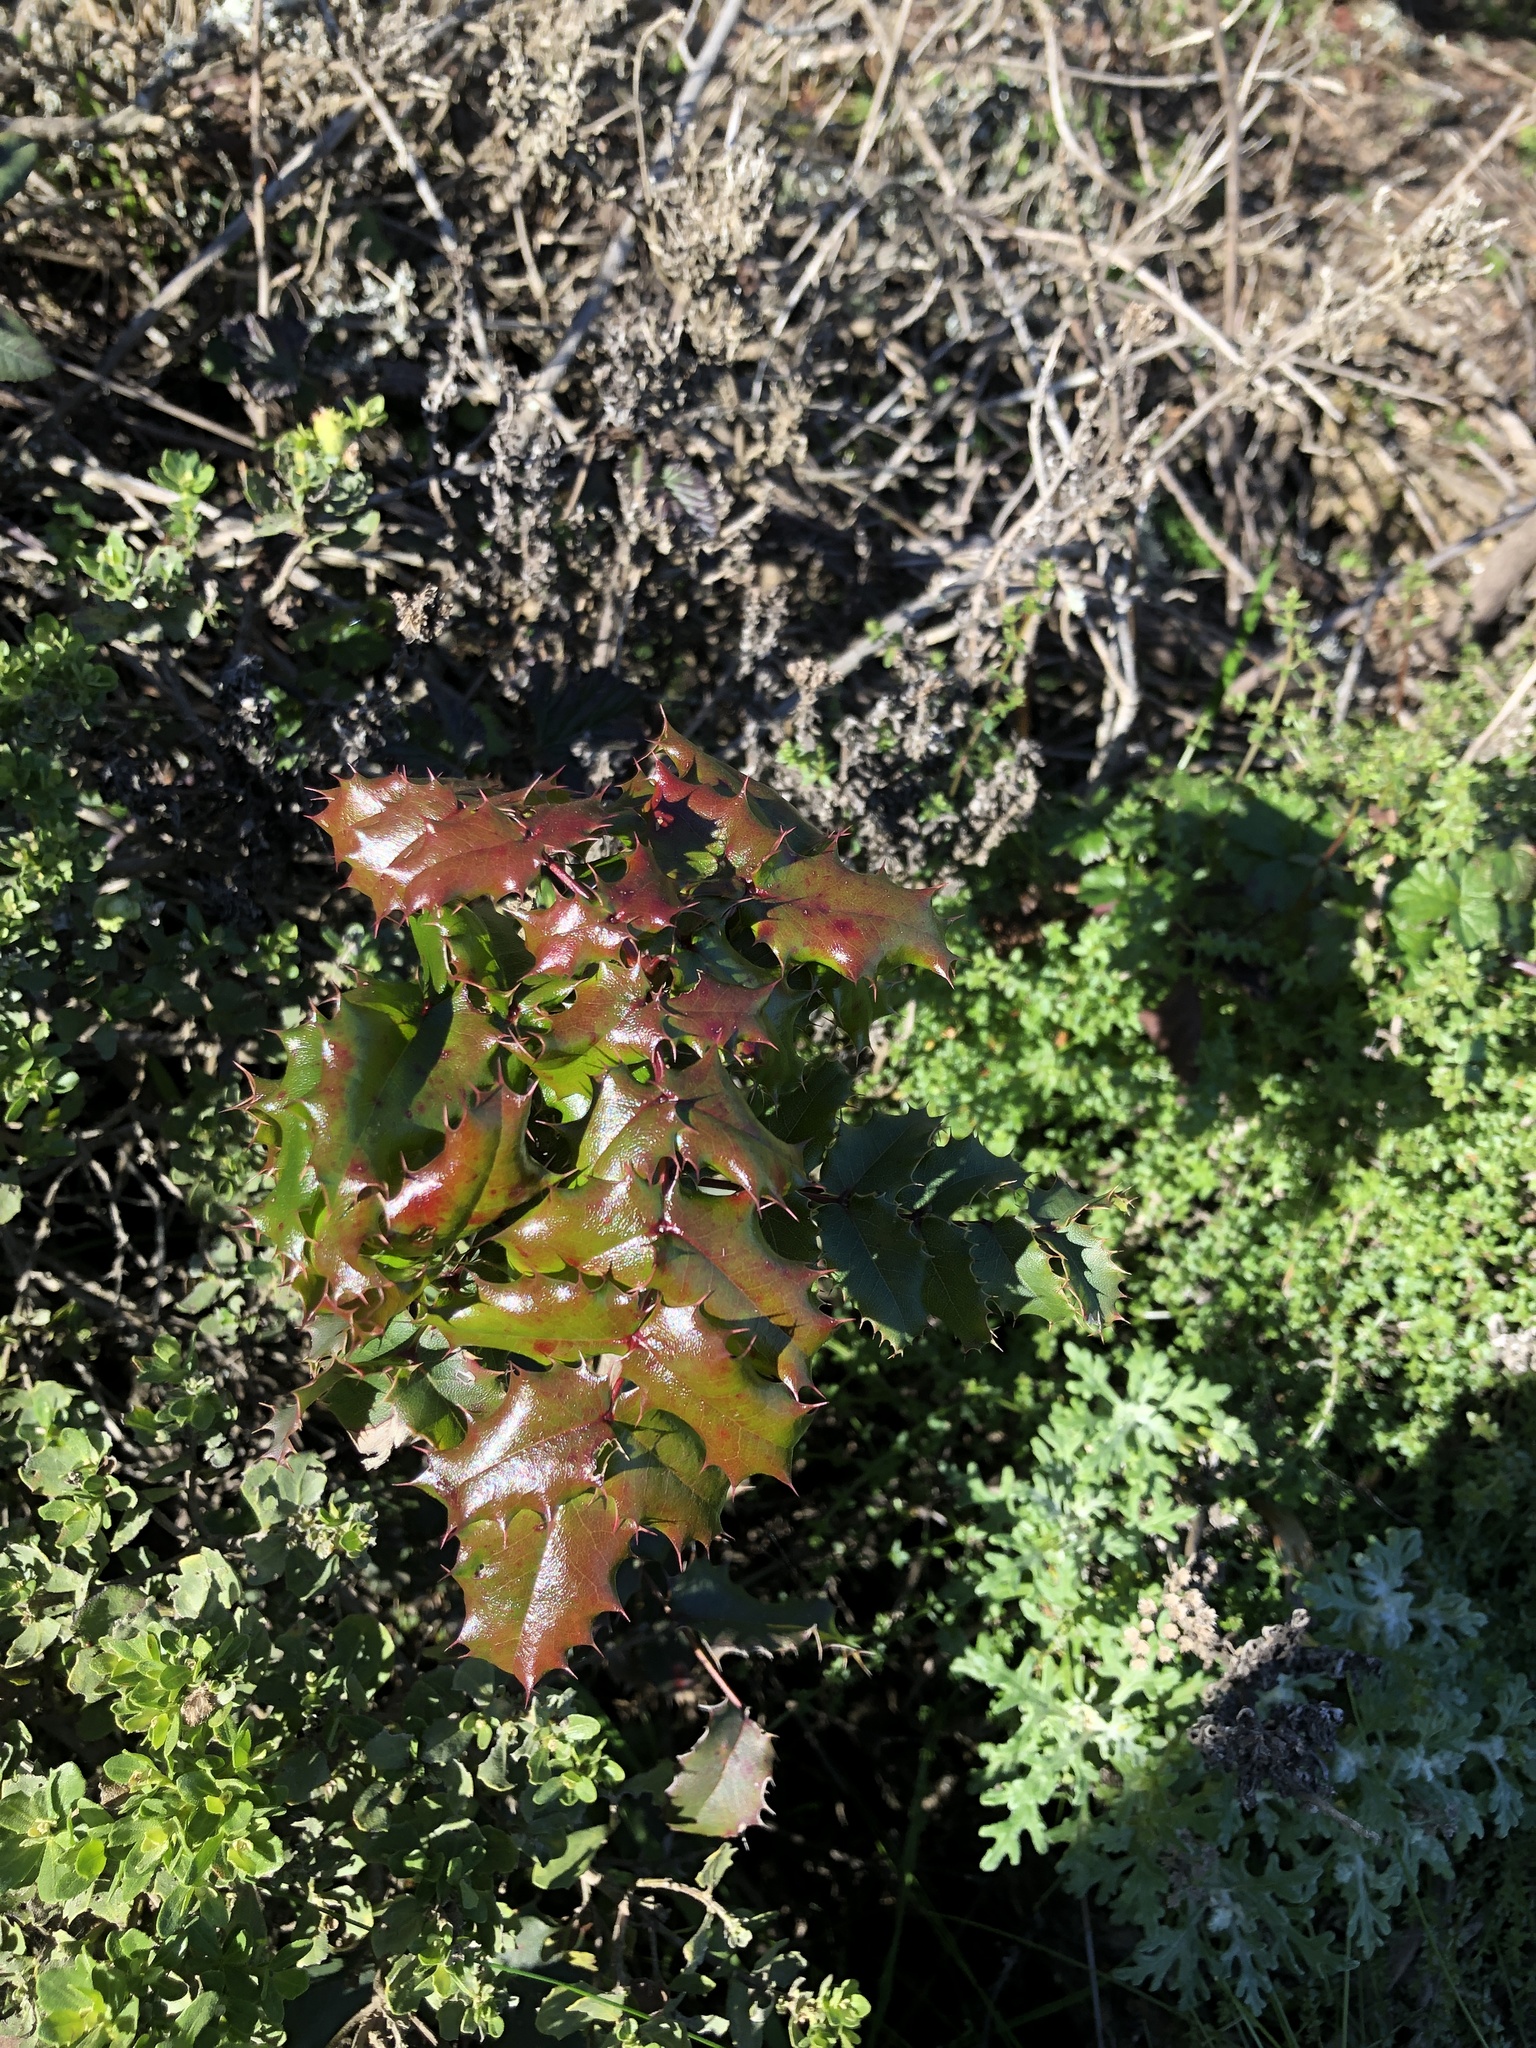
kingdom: Plantae
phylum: Tracheophyta
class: Magnoliopsida
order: Ranunculales
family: Berberidaceae
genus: Mahonia
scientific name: Mahonia
